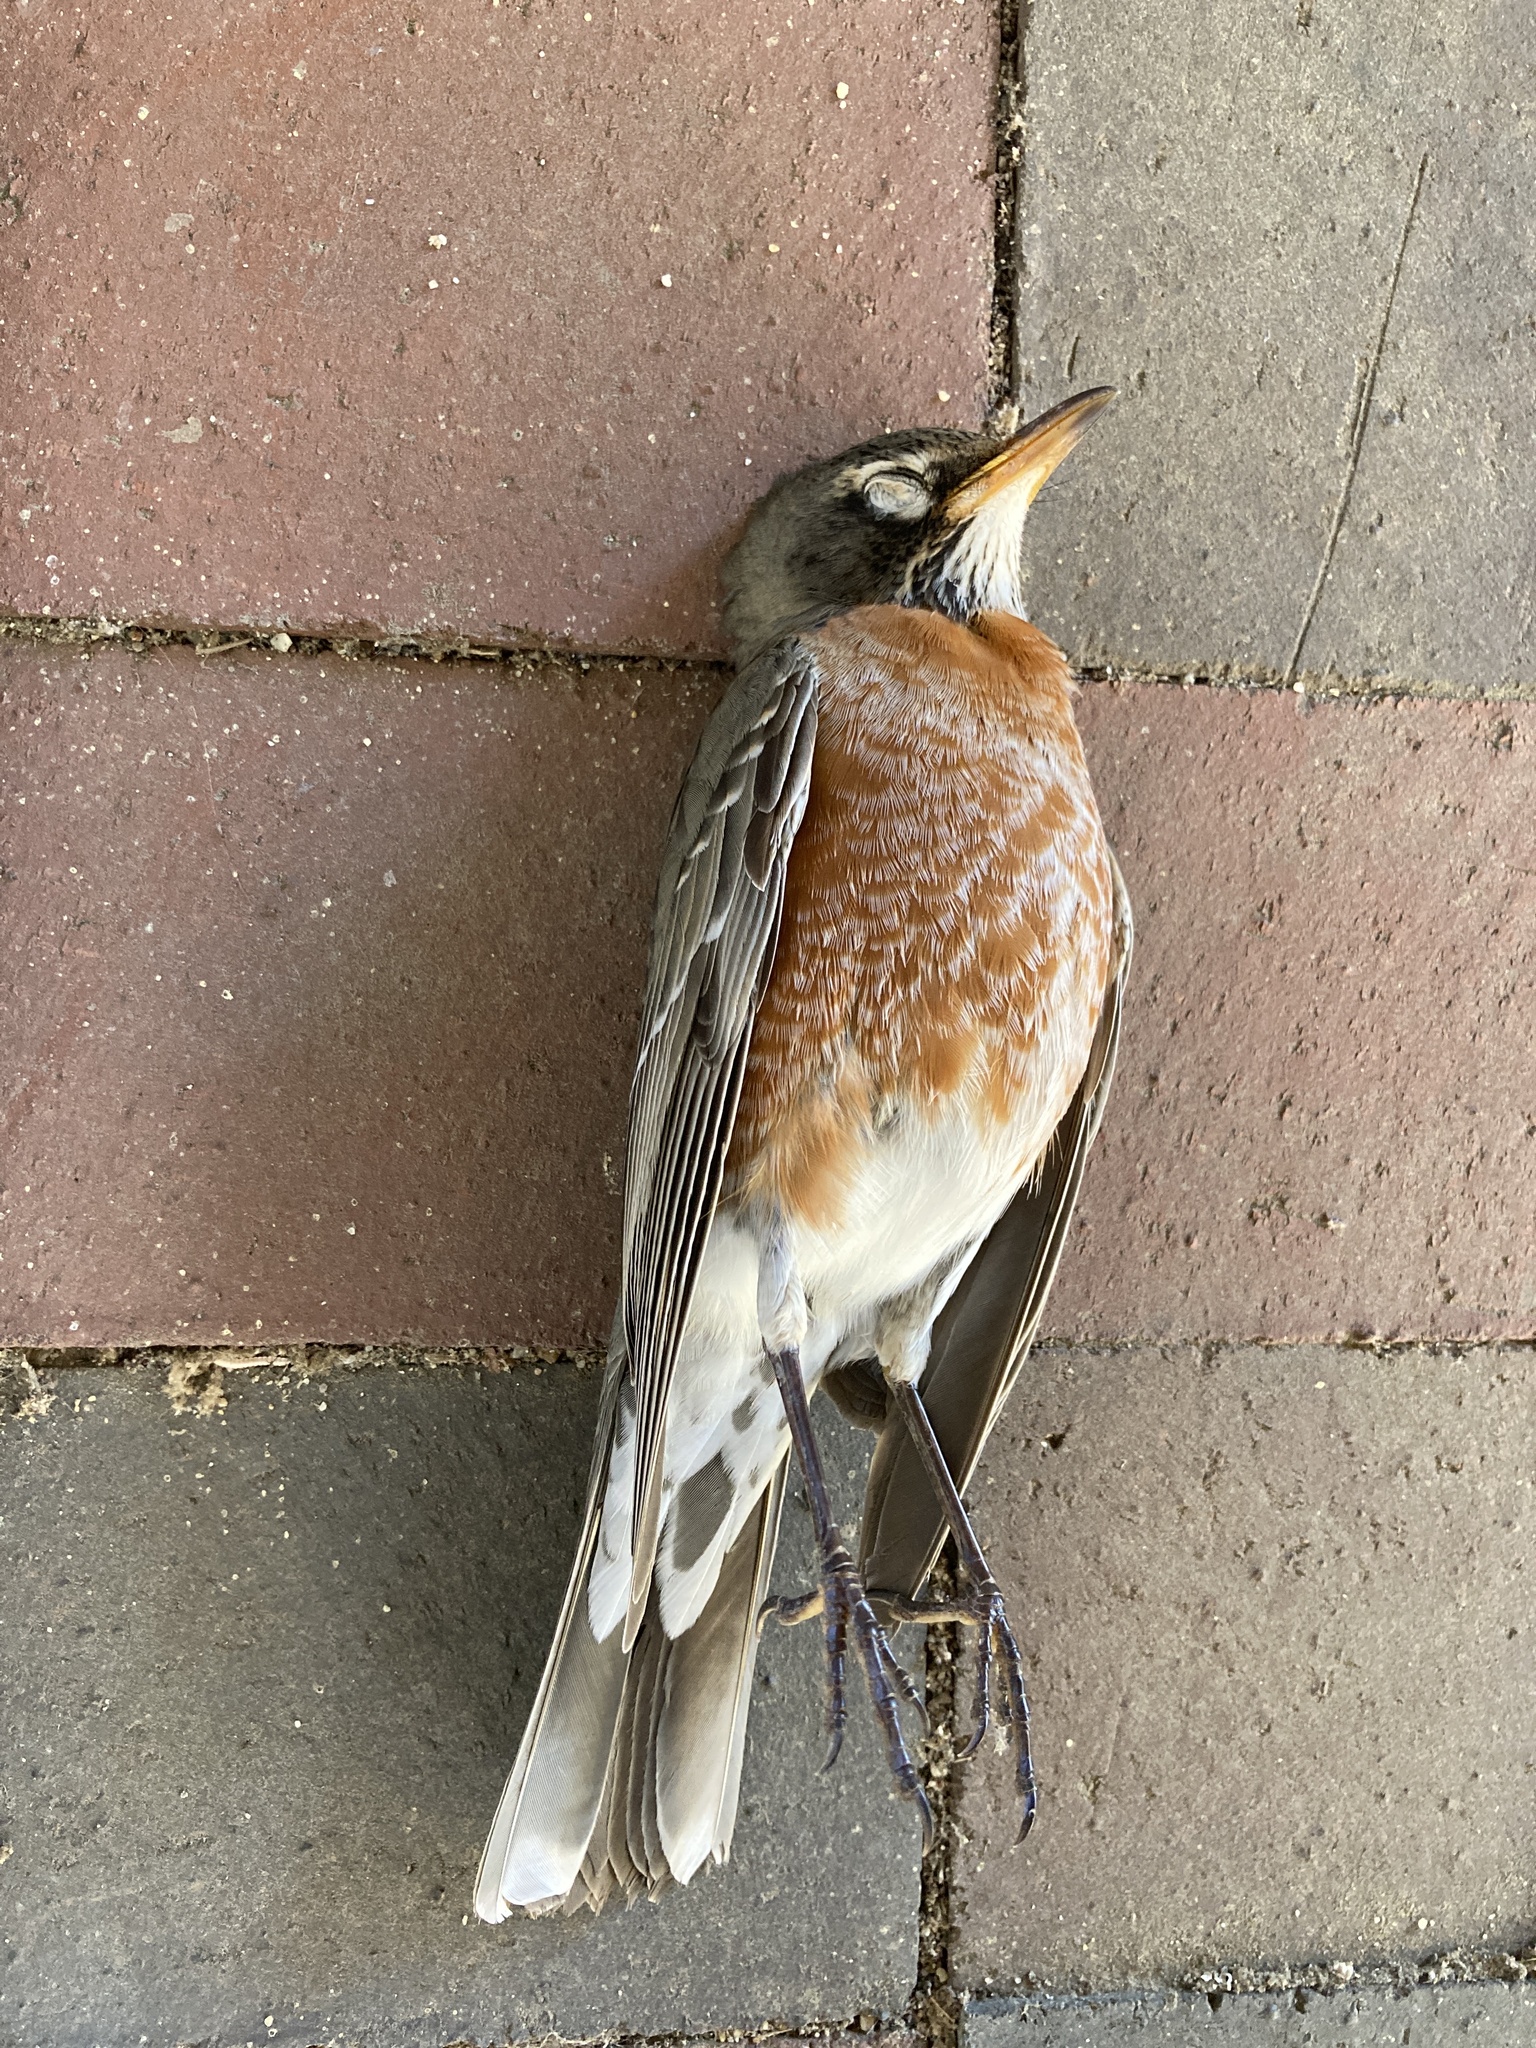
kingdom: Animalia
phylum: Chordata
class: Aves
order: Passeriformes
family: Turdidae
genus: Turdus
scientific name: Turdus migratorius
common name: American robin
